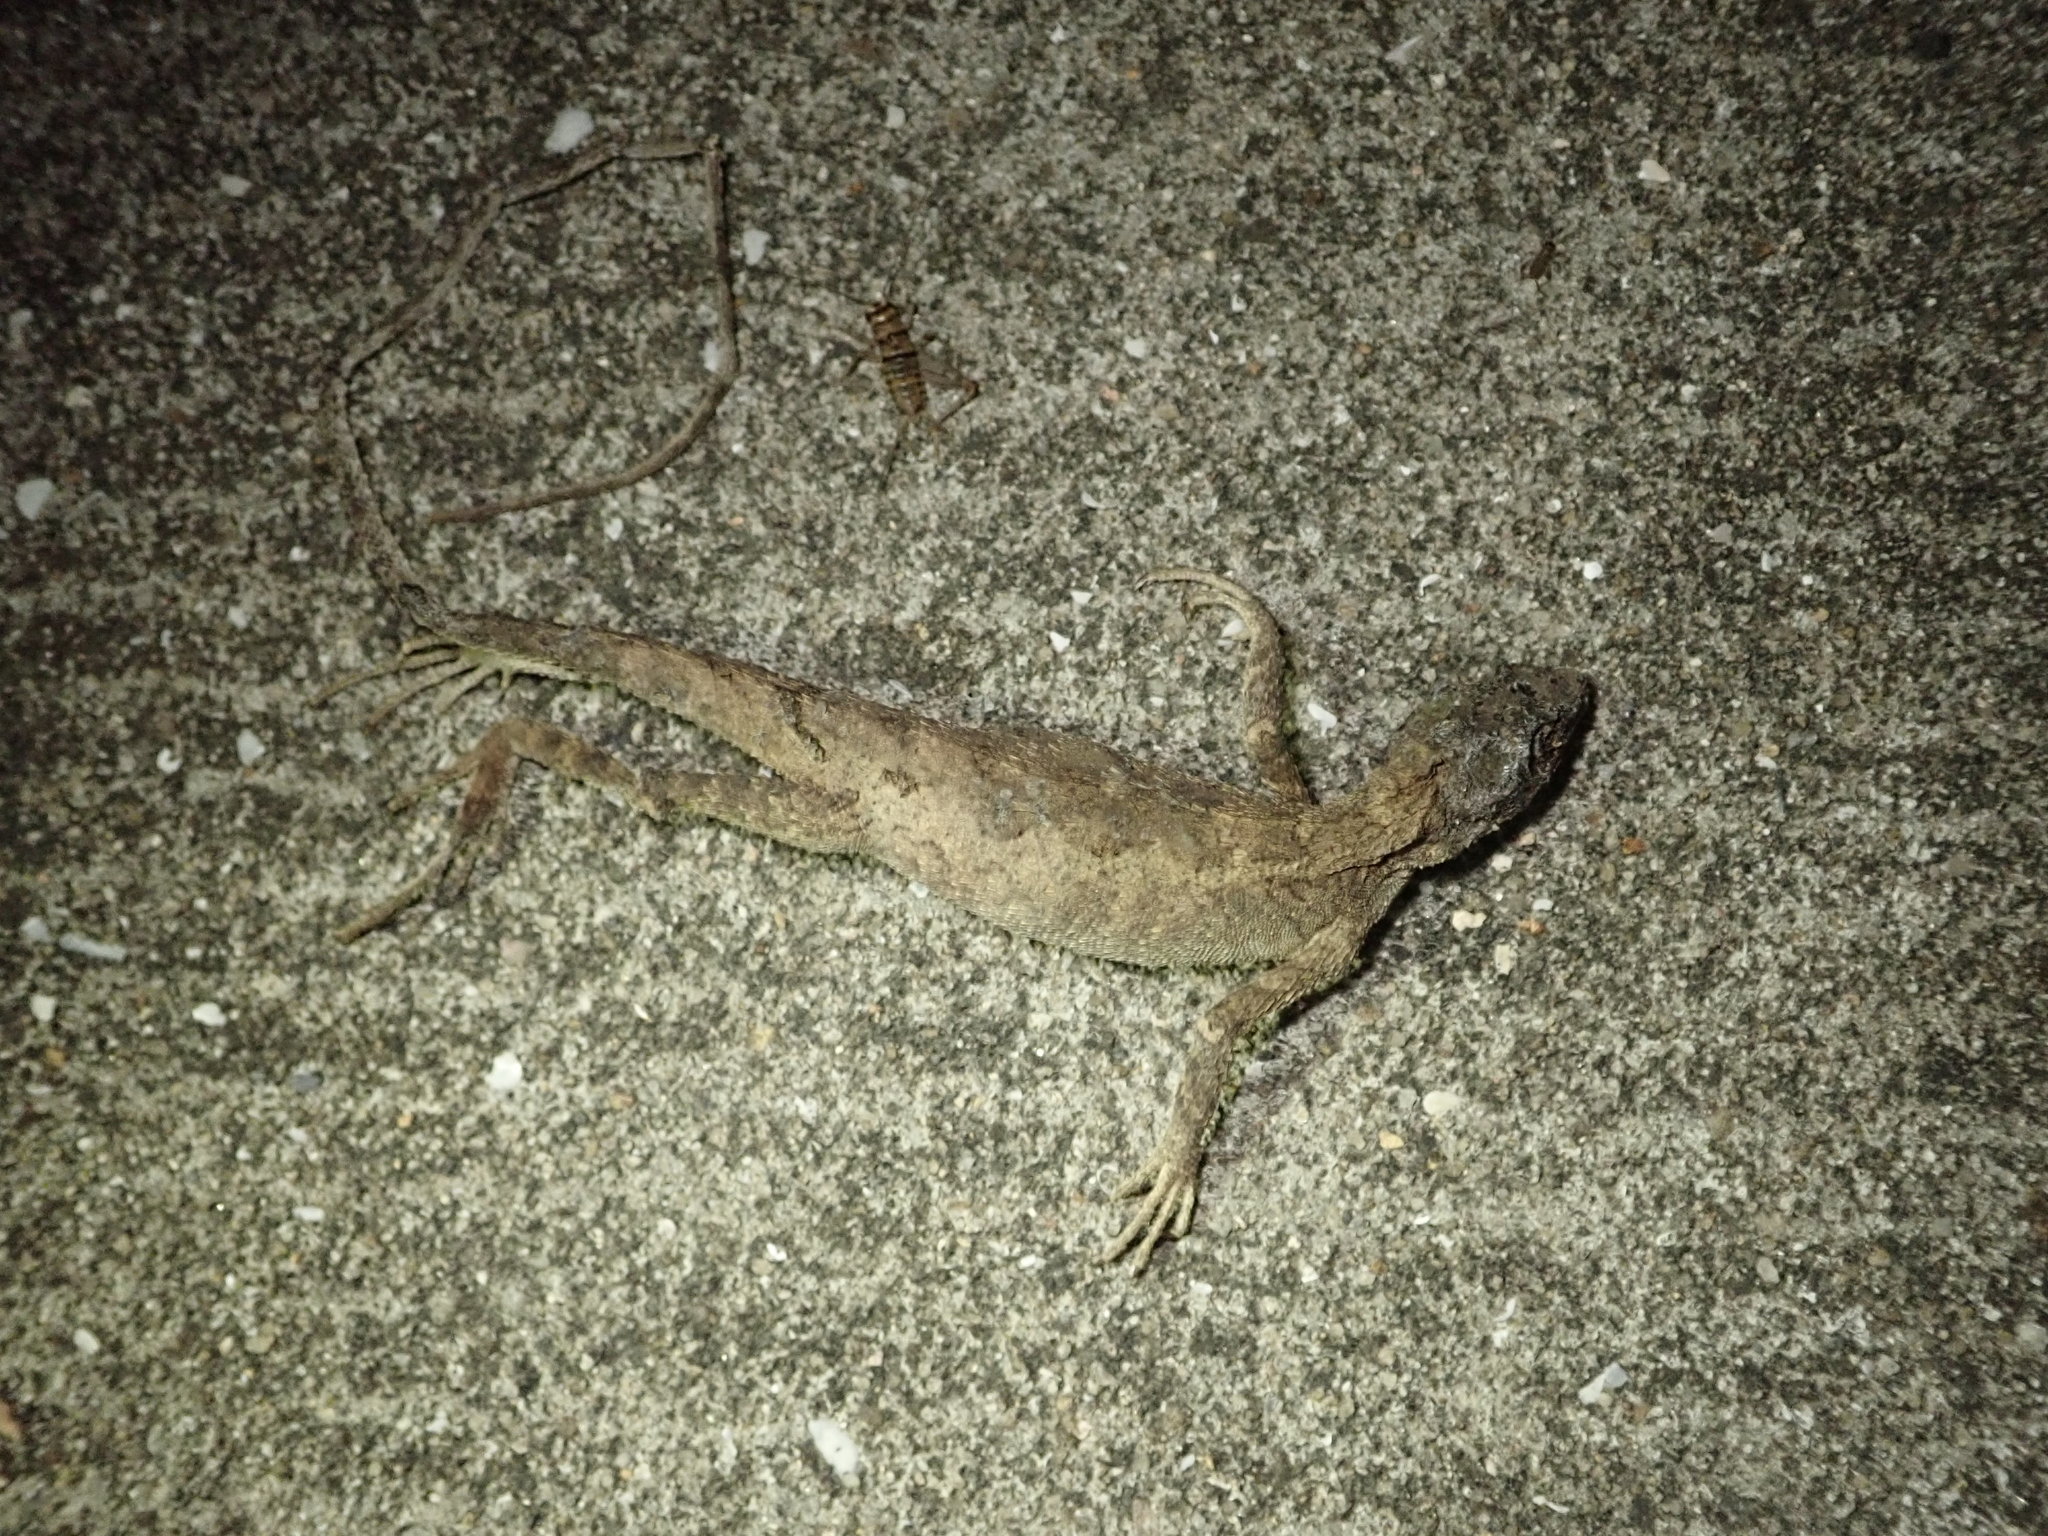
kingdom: Animalia
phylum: Chordata
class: Squamata
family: Agamidae
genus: Diploderma
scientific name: Diploderma swinhonis
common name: Taiwan japalure
